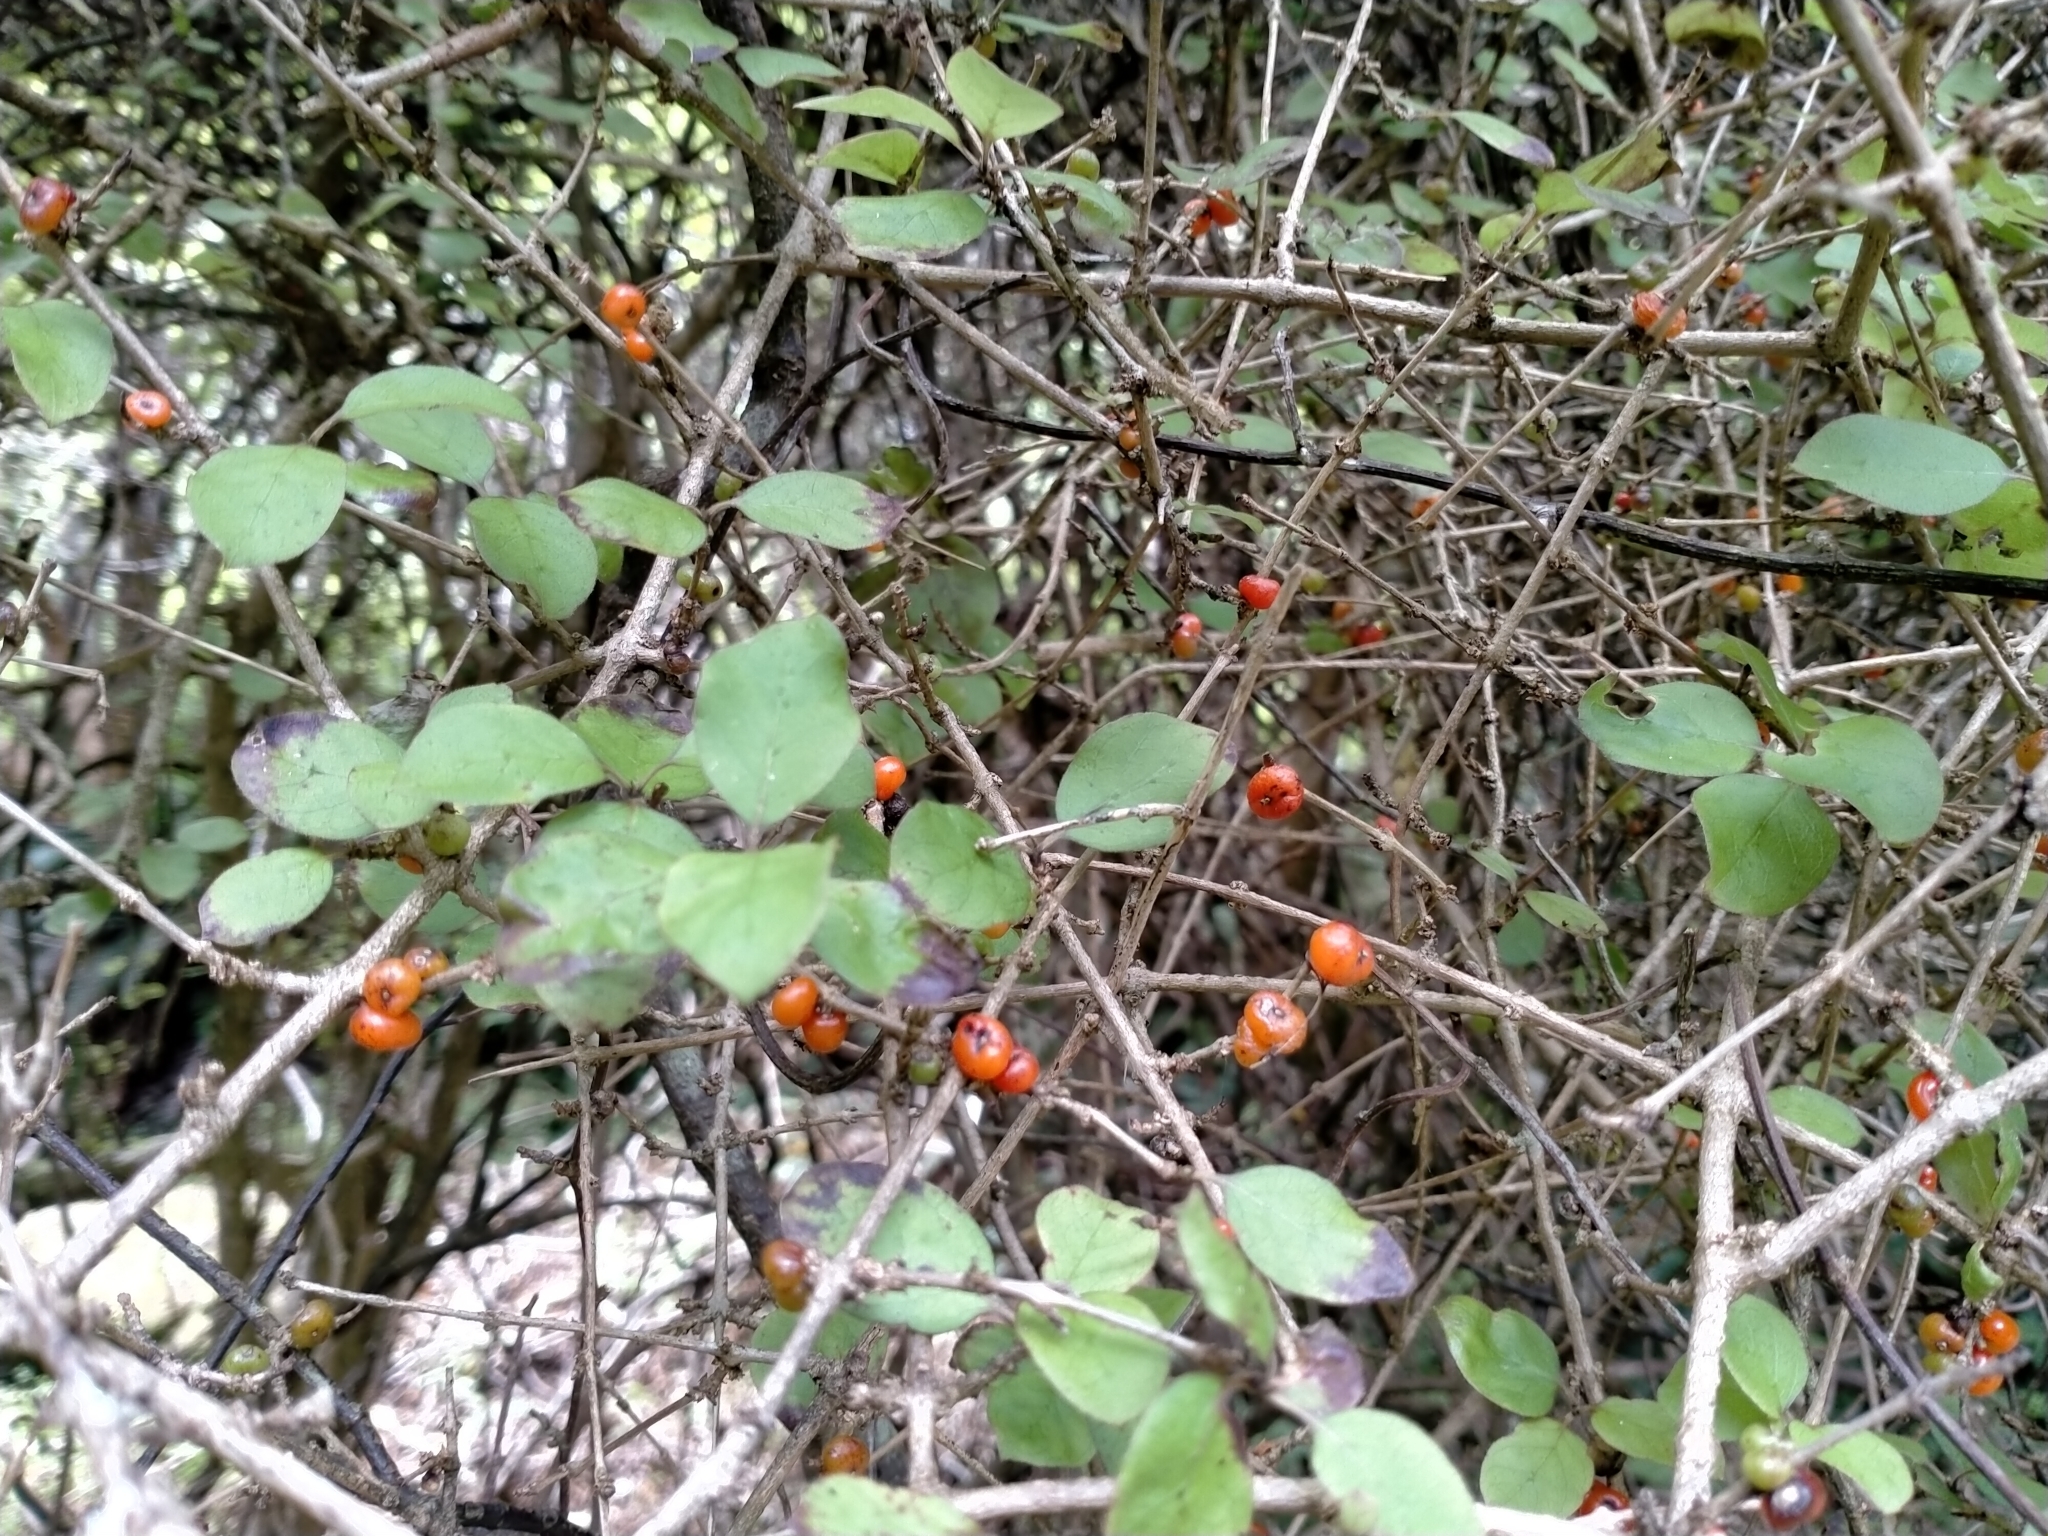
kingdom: Plantae
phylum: Tracheophyta
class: Magnoliopsida
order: Gentianales
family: Rubiaceae
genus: Coprosma
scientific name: Coprosma rotundifolia
